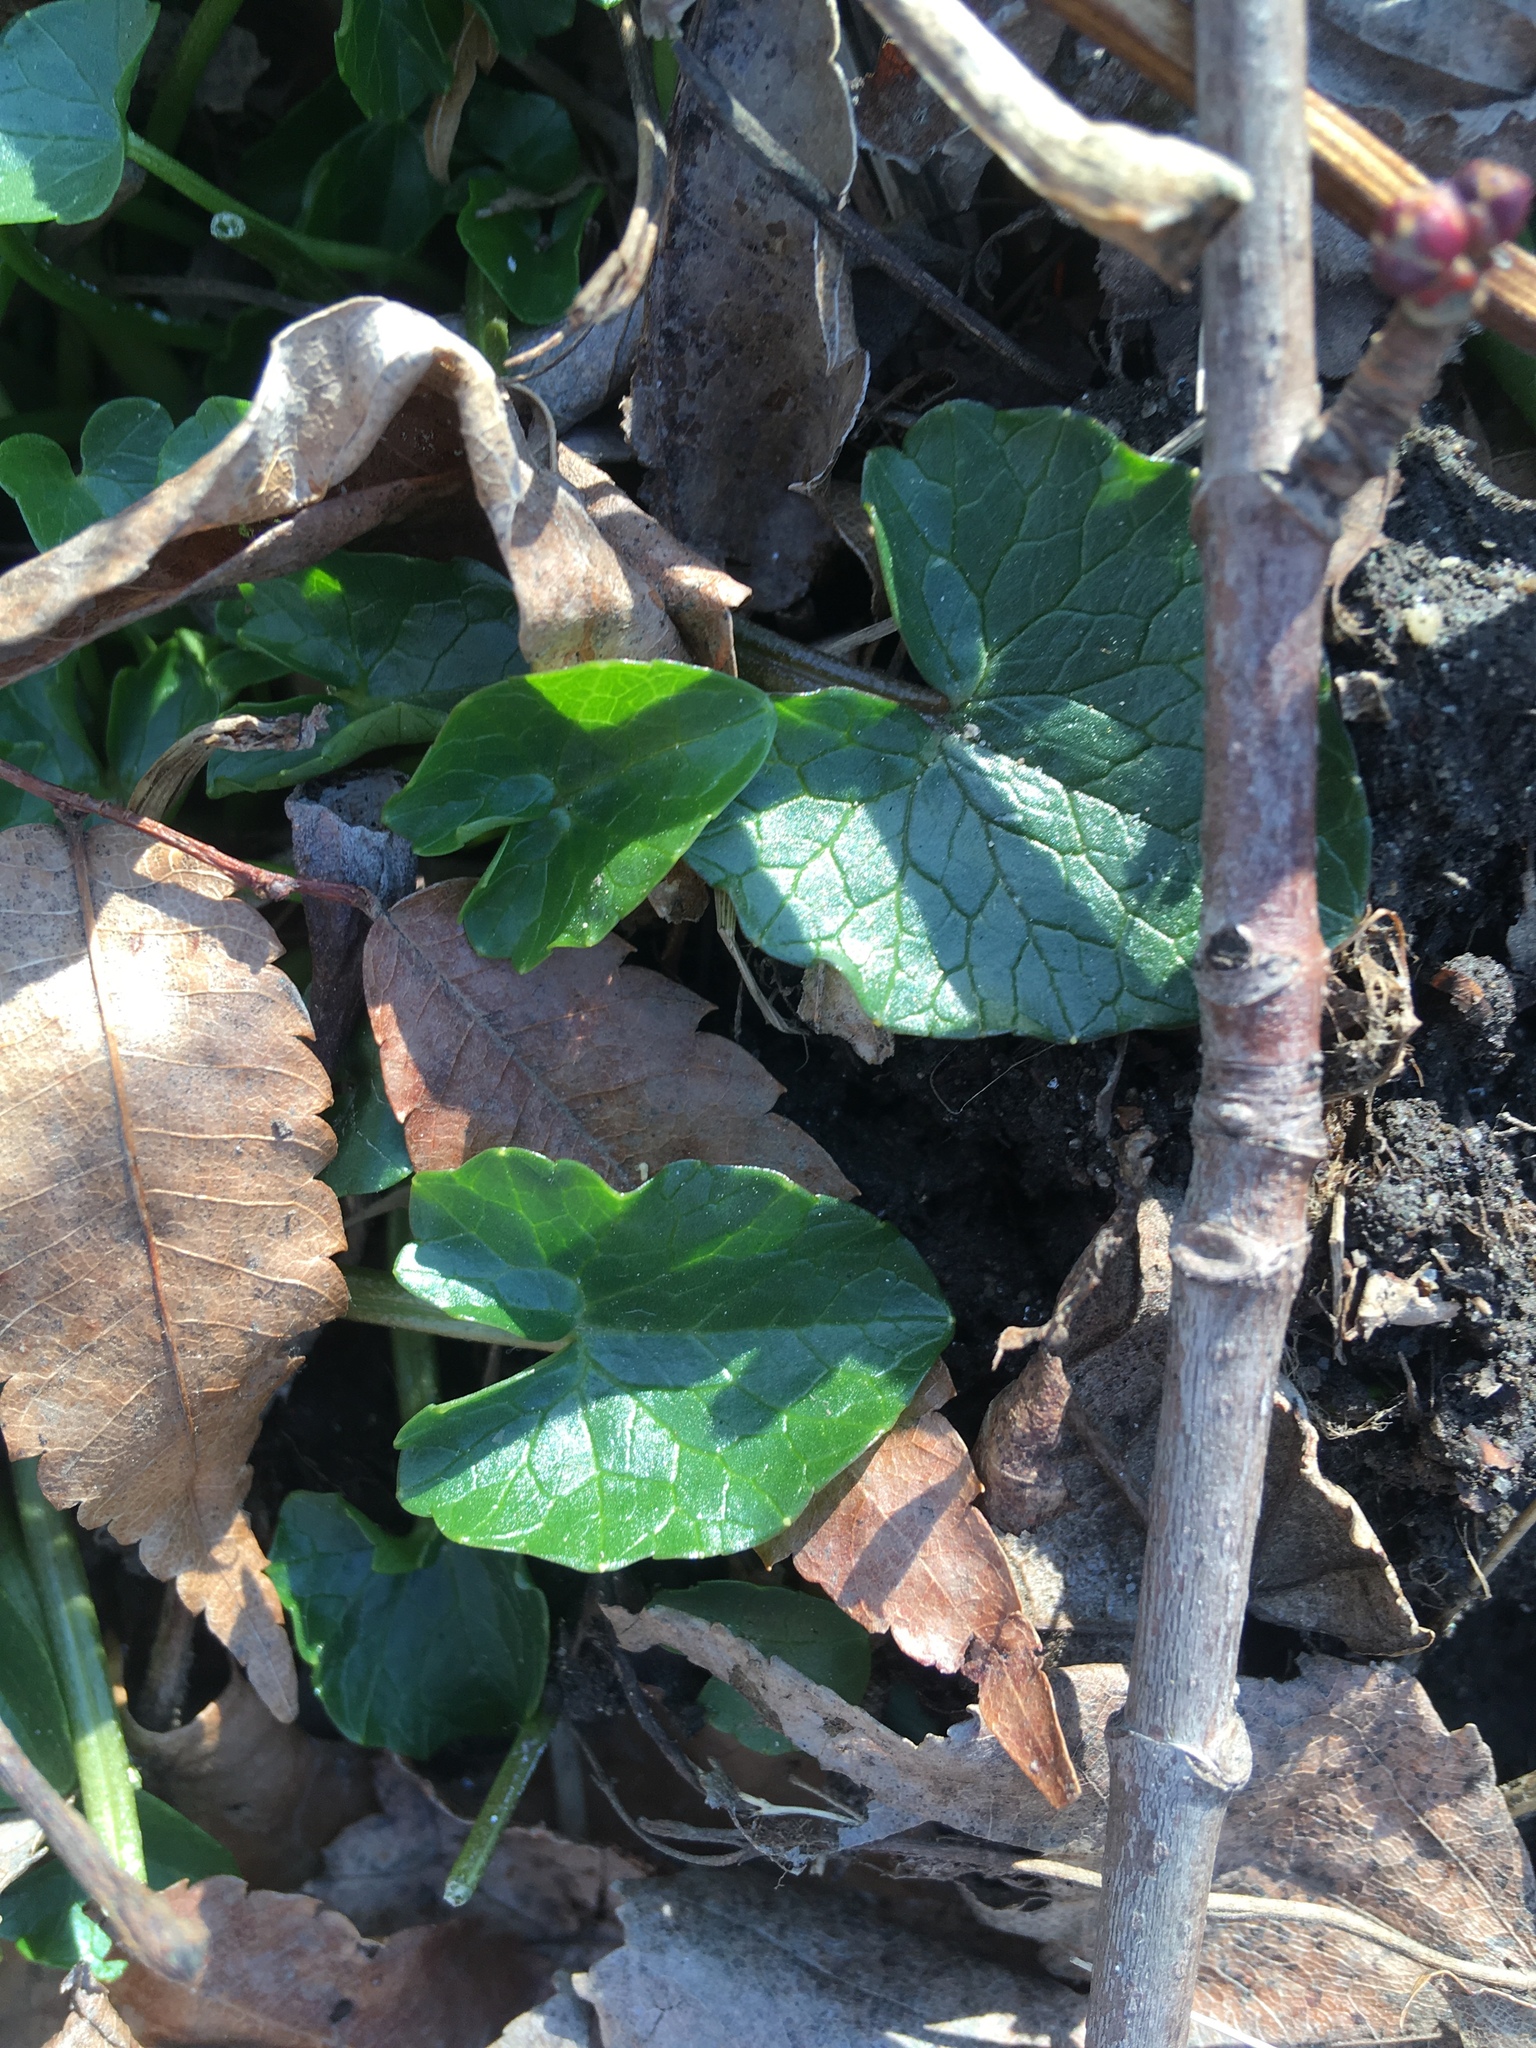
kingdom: Plantae
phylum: Tracheophyta
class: Magnoliopsida
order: Ranunculales
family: Ranunculaceae
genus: Ficaria
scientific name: Ficaria verna
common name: Lesser celandine
